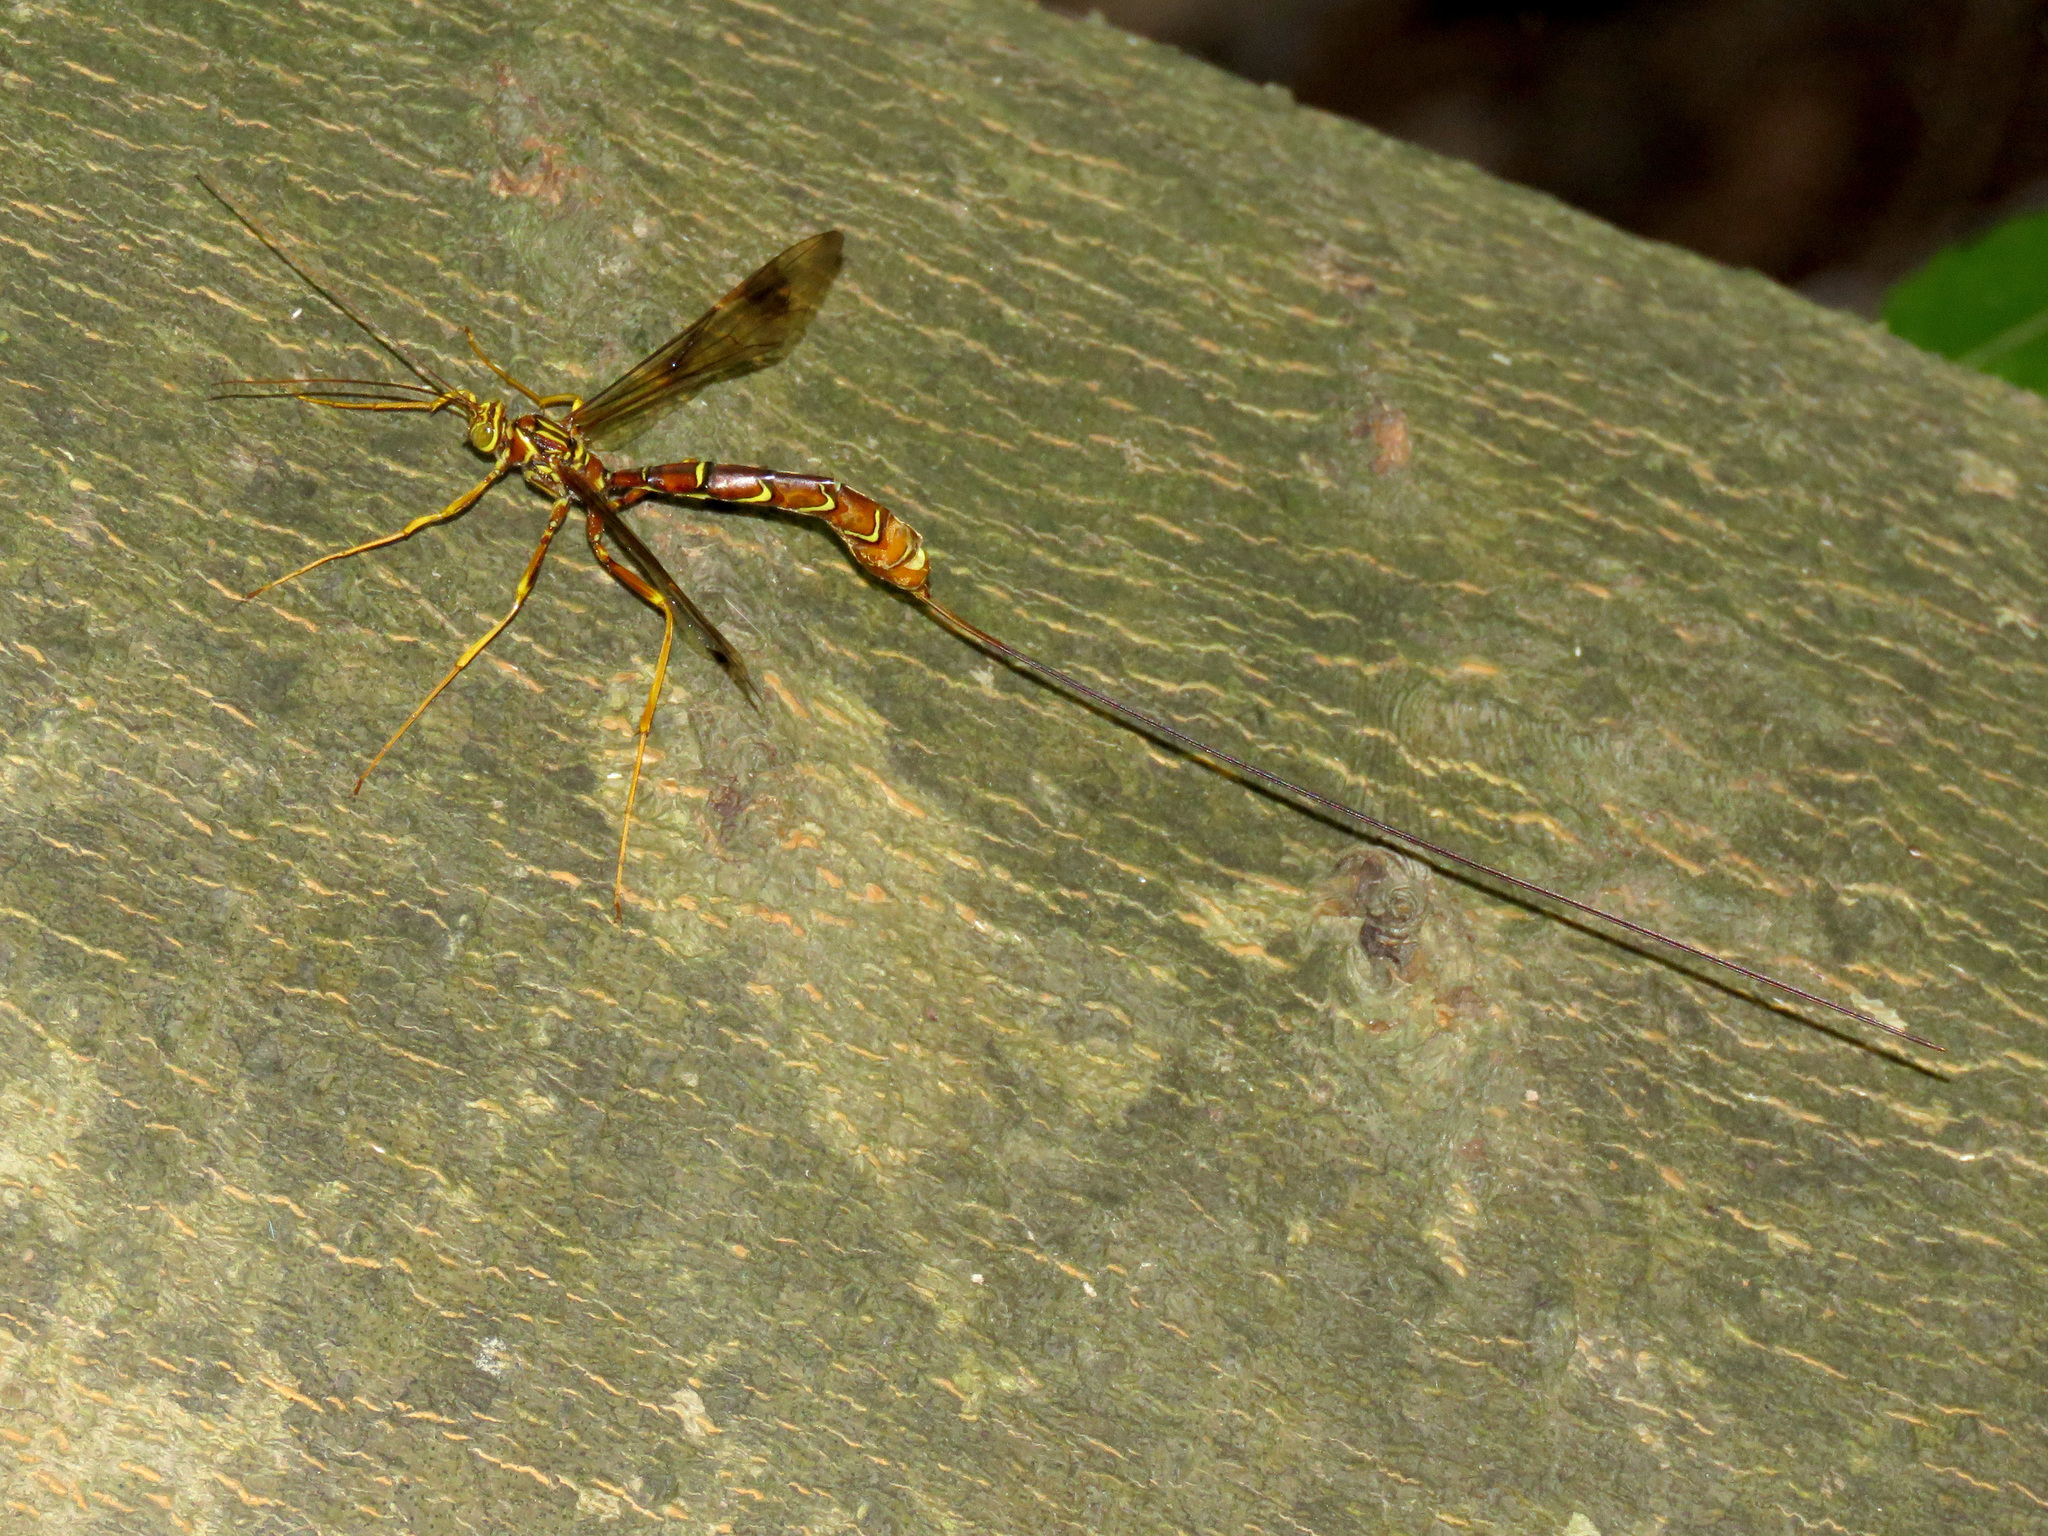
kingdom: Animalia
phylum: Arthropoda
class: Insecta
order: Hymenoptera
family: Ichneumonidae
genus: Megarhyssa
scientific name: Megarhyssa macrura
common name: Long-tailed giant ichneumonid wasp
